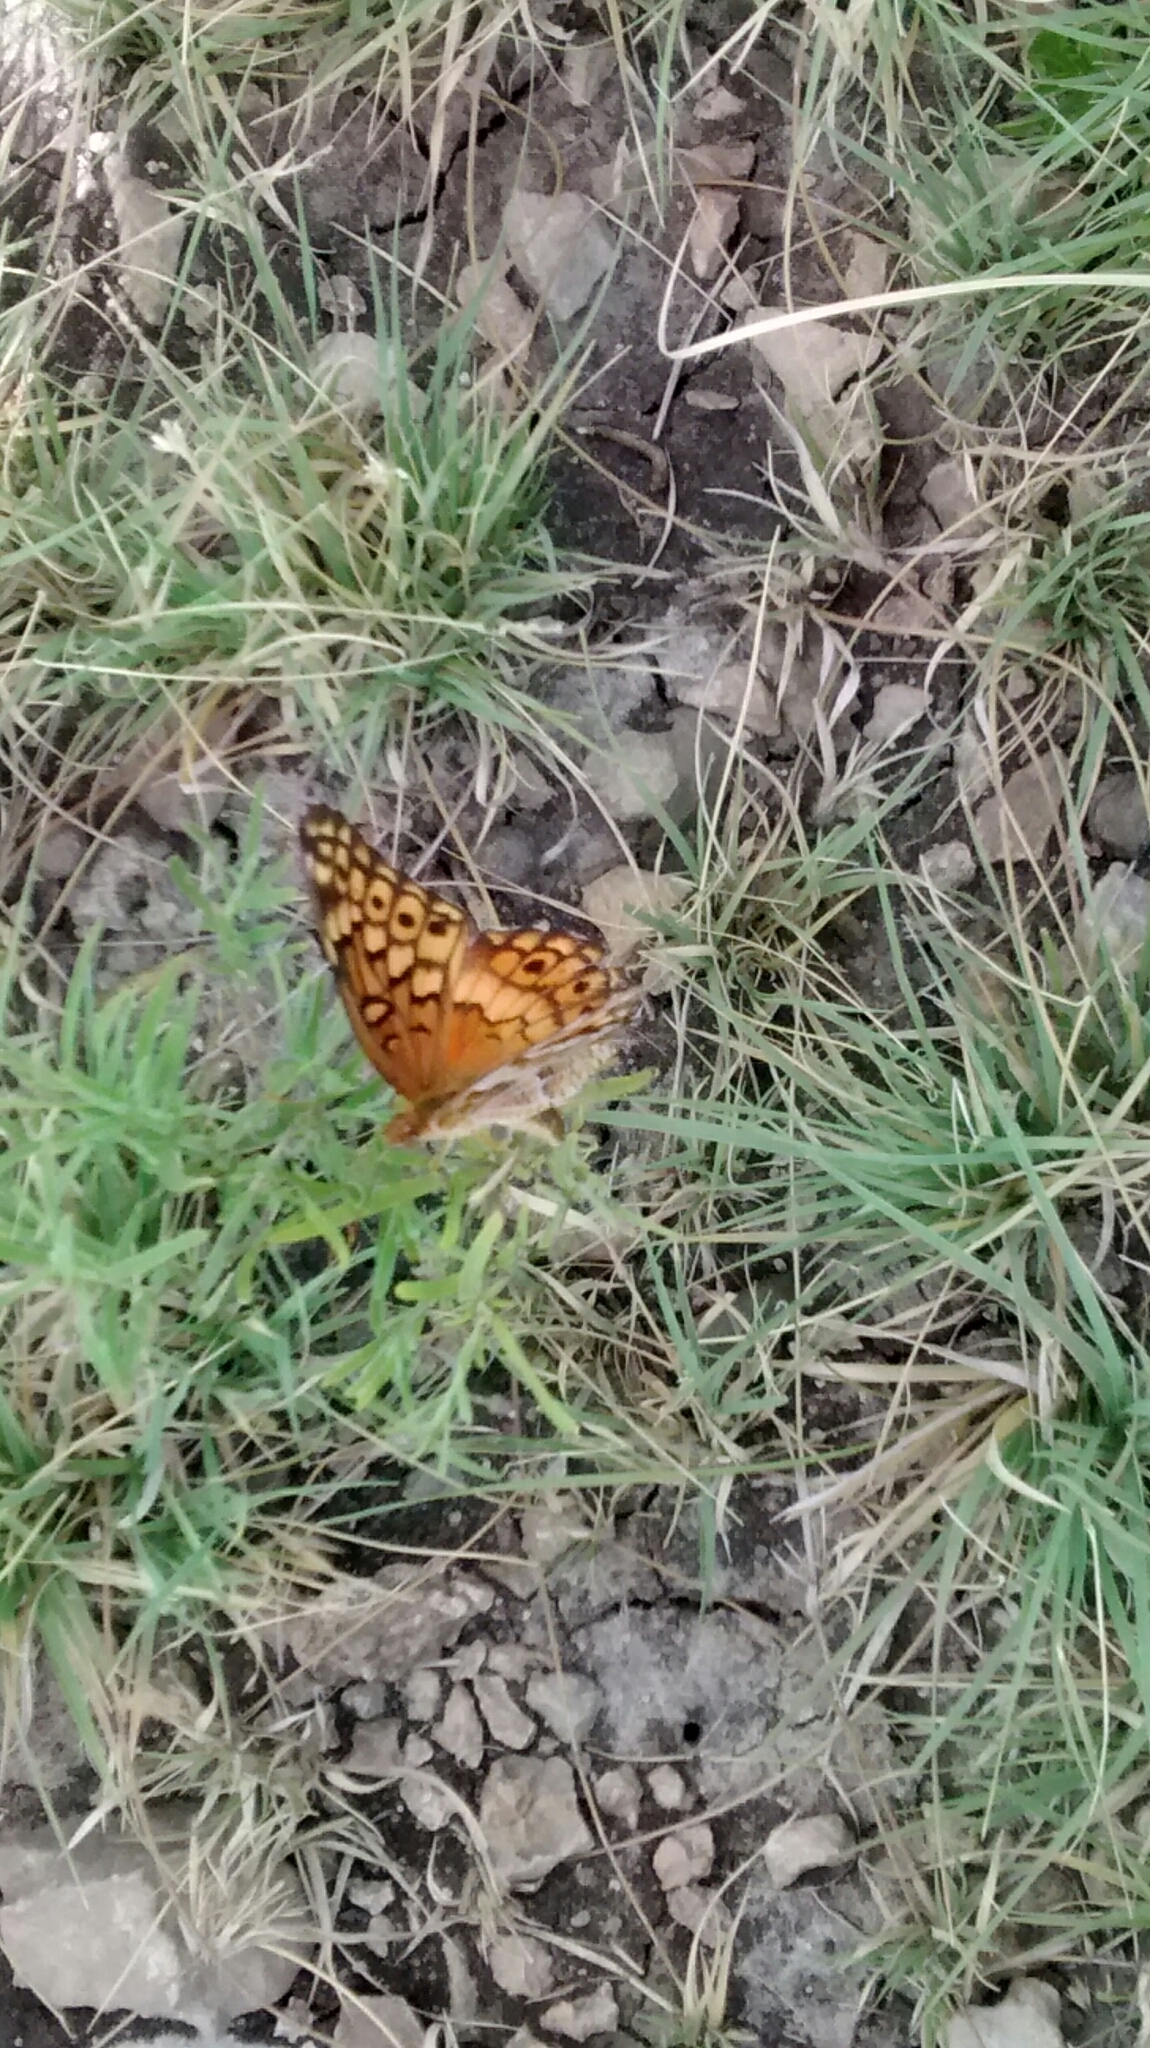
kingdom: Animalia
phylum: Arthropoda
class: Insecta
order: Lepidoptera
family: Nymphalidae
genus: Euptoieta
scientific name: Euptoieta claudia
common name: Variegated fritillary
